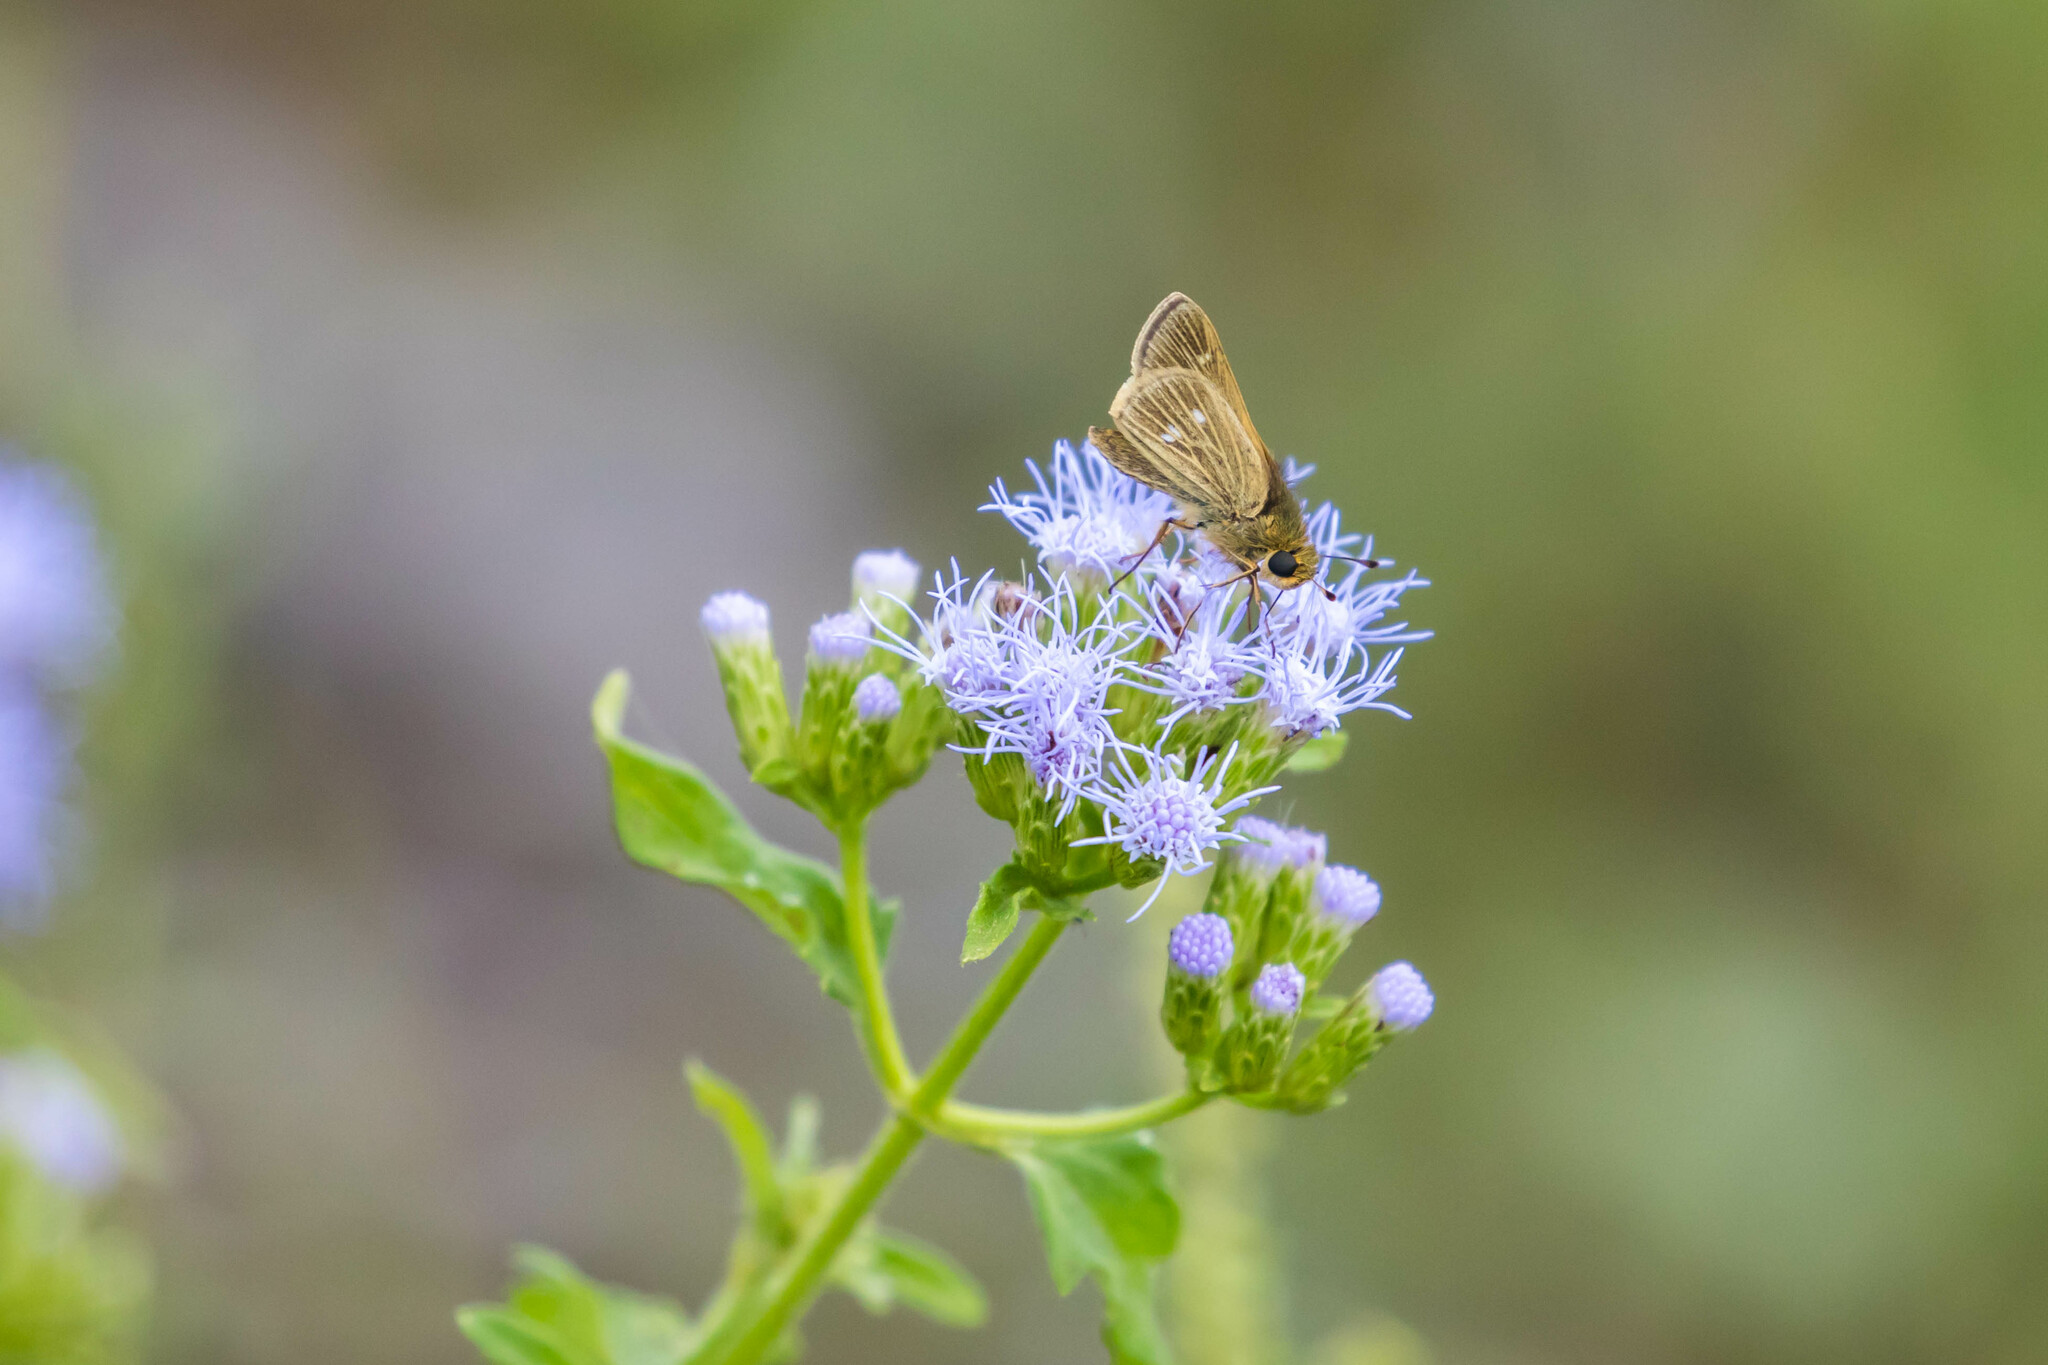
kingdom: Animalia
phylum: Arthropoda
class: Insecta
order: Lepidoptera
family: Hesperiidae
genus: Panoquina
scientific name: Panoquina panoquinoides
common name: Beach skipper
